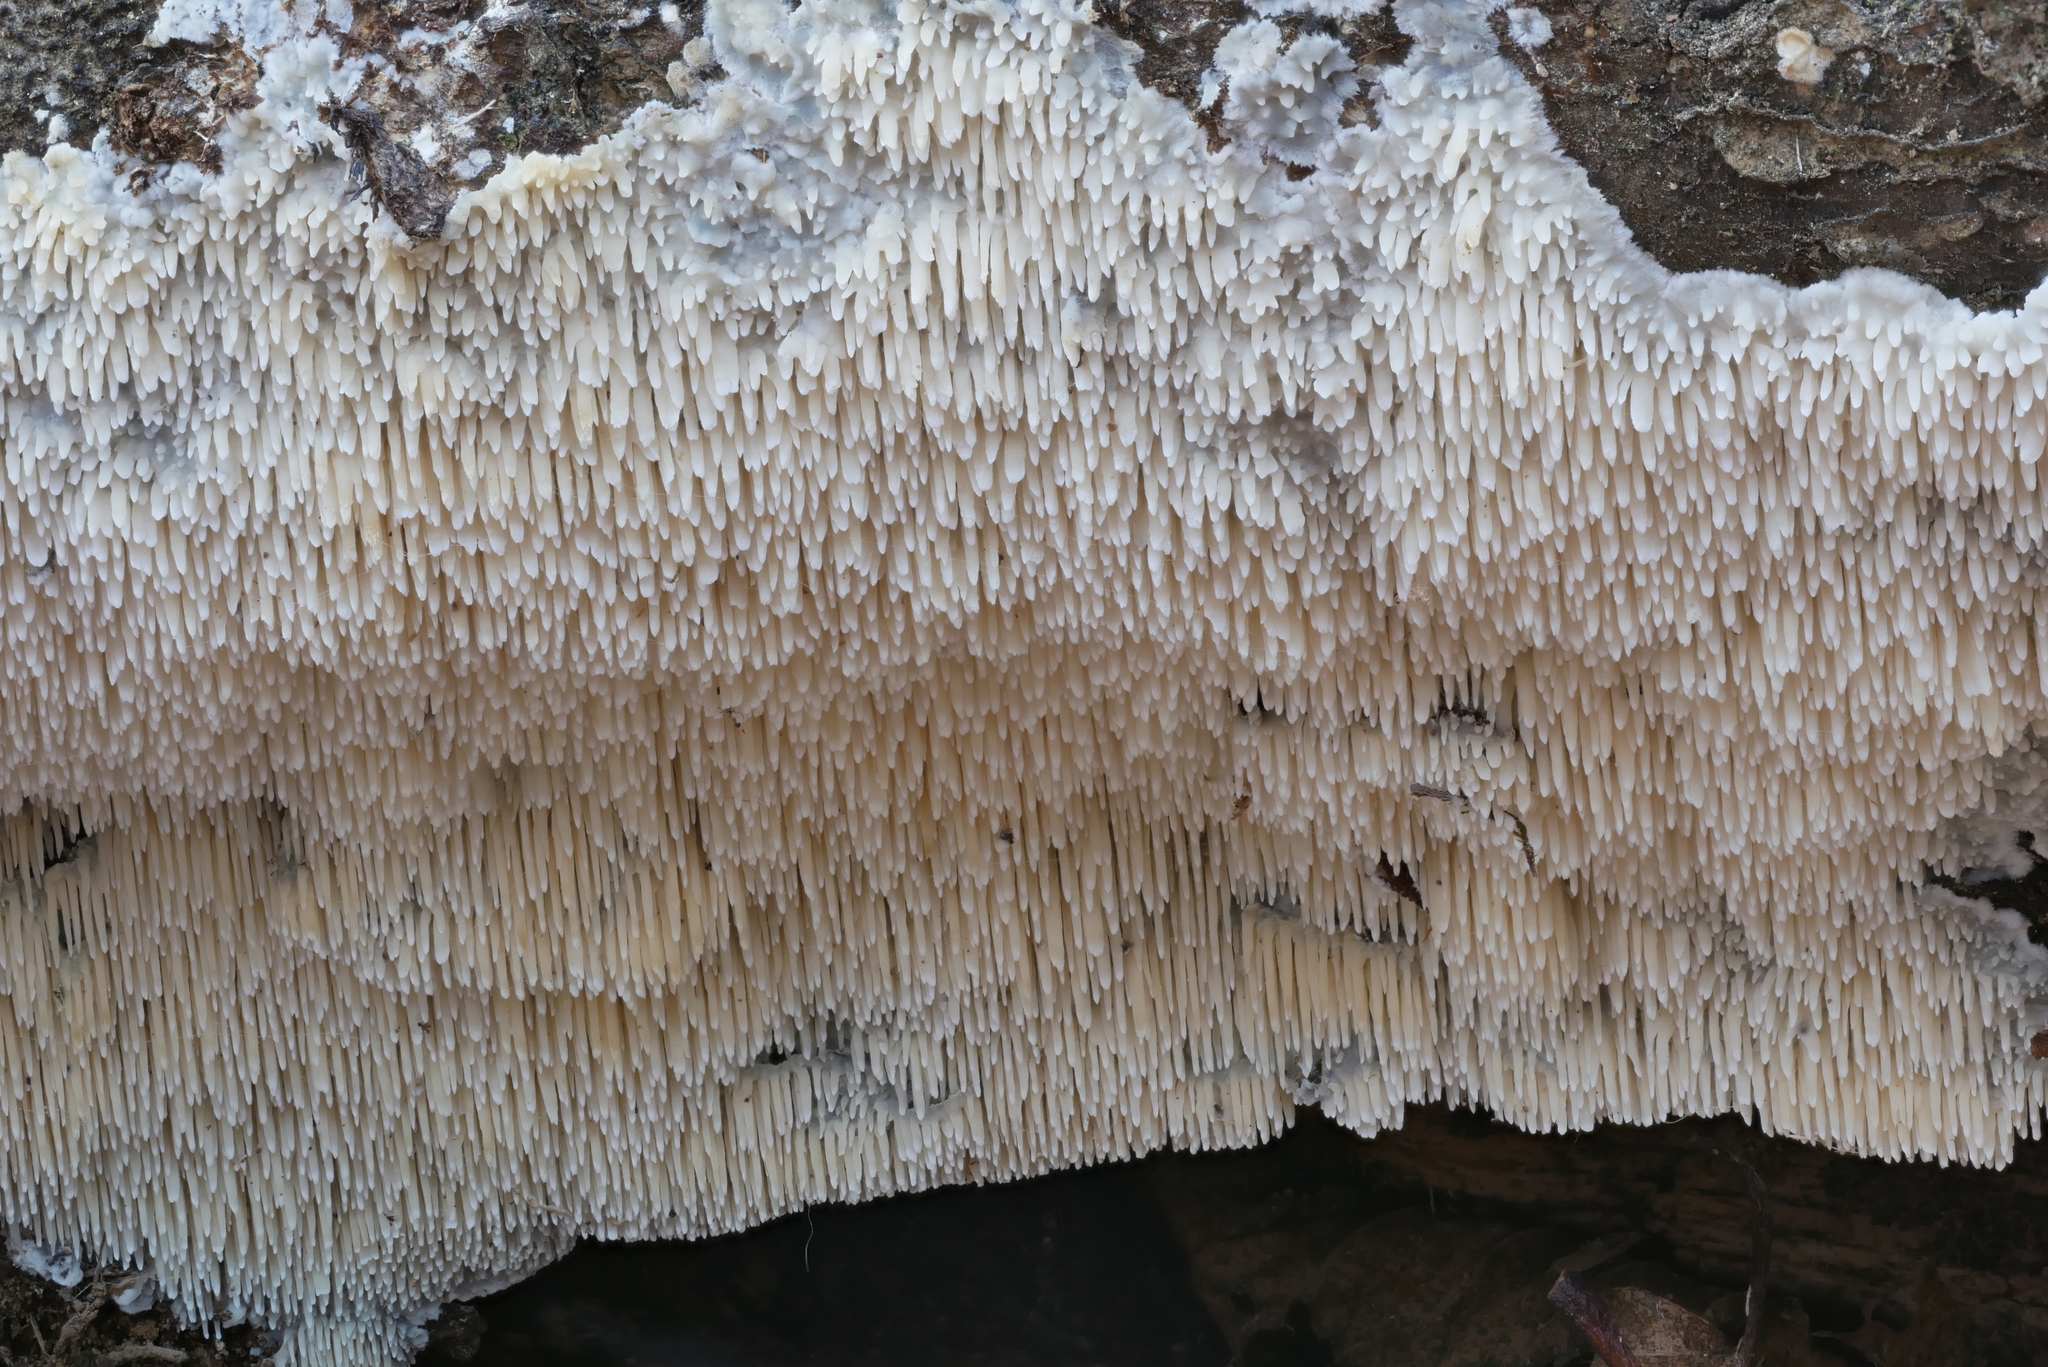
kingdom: Fungi
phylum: Basidiomycota
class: Agaricomycetes
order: Agaricales
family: Radulomycetaceae
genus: Radulomyces
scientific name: Radulomyces copelandii
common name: Asian beauty
